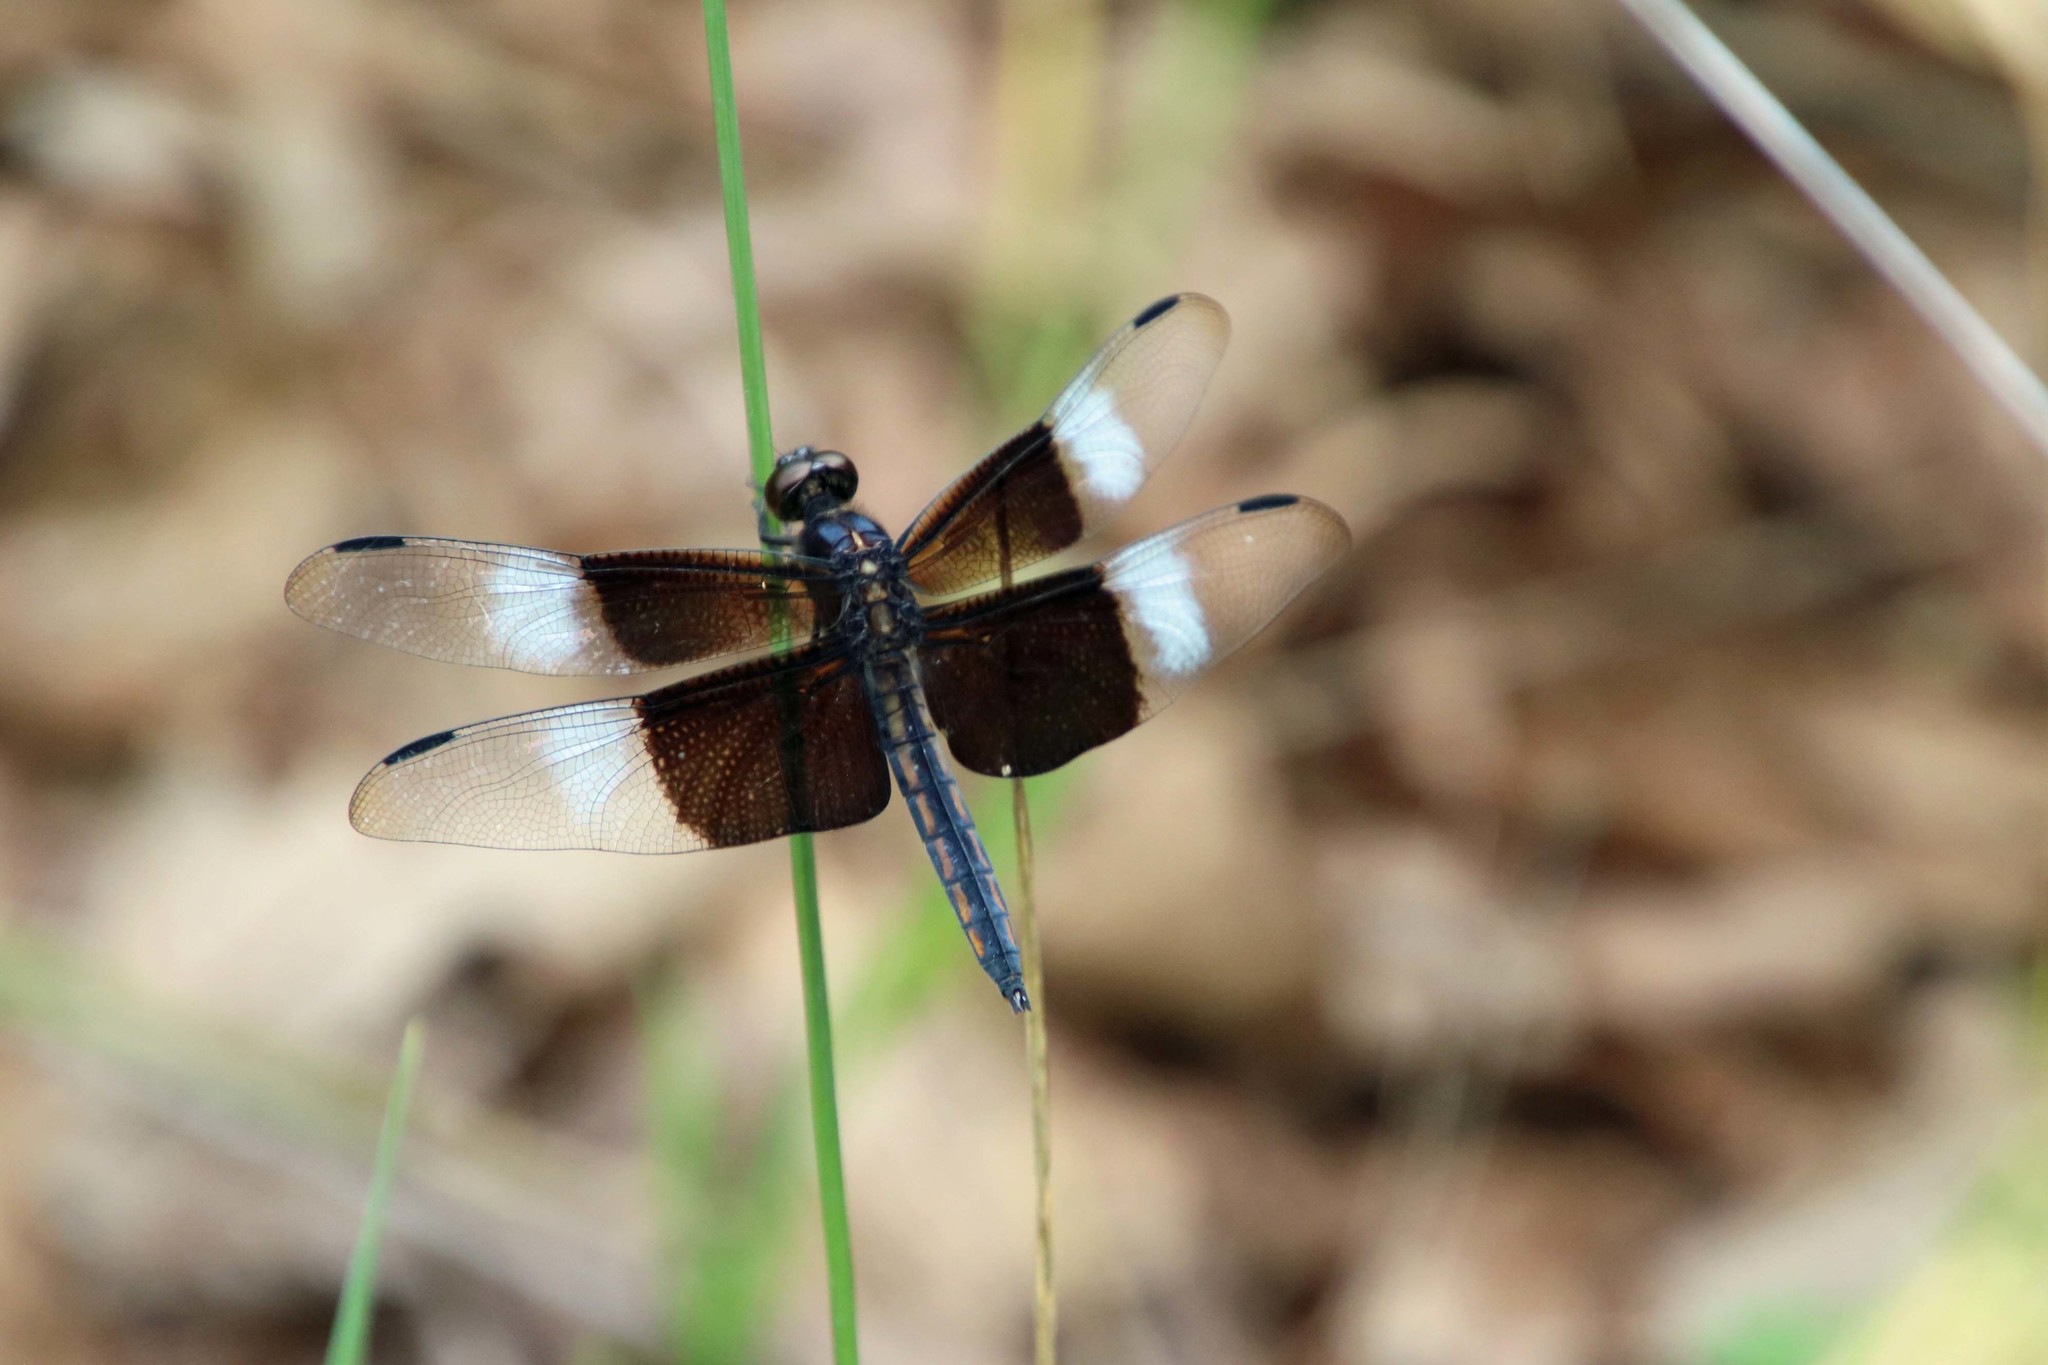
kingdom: Animalia
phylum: Arthropoda
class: Insecta
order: Odonata
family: Libellulidae
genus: Libellula
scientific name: Libellula luctuosa
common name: Widow skimmer
